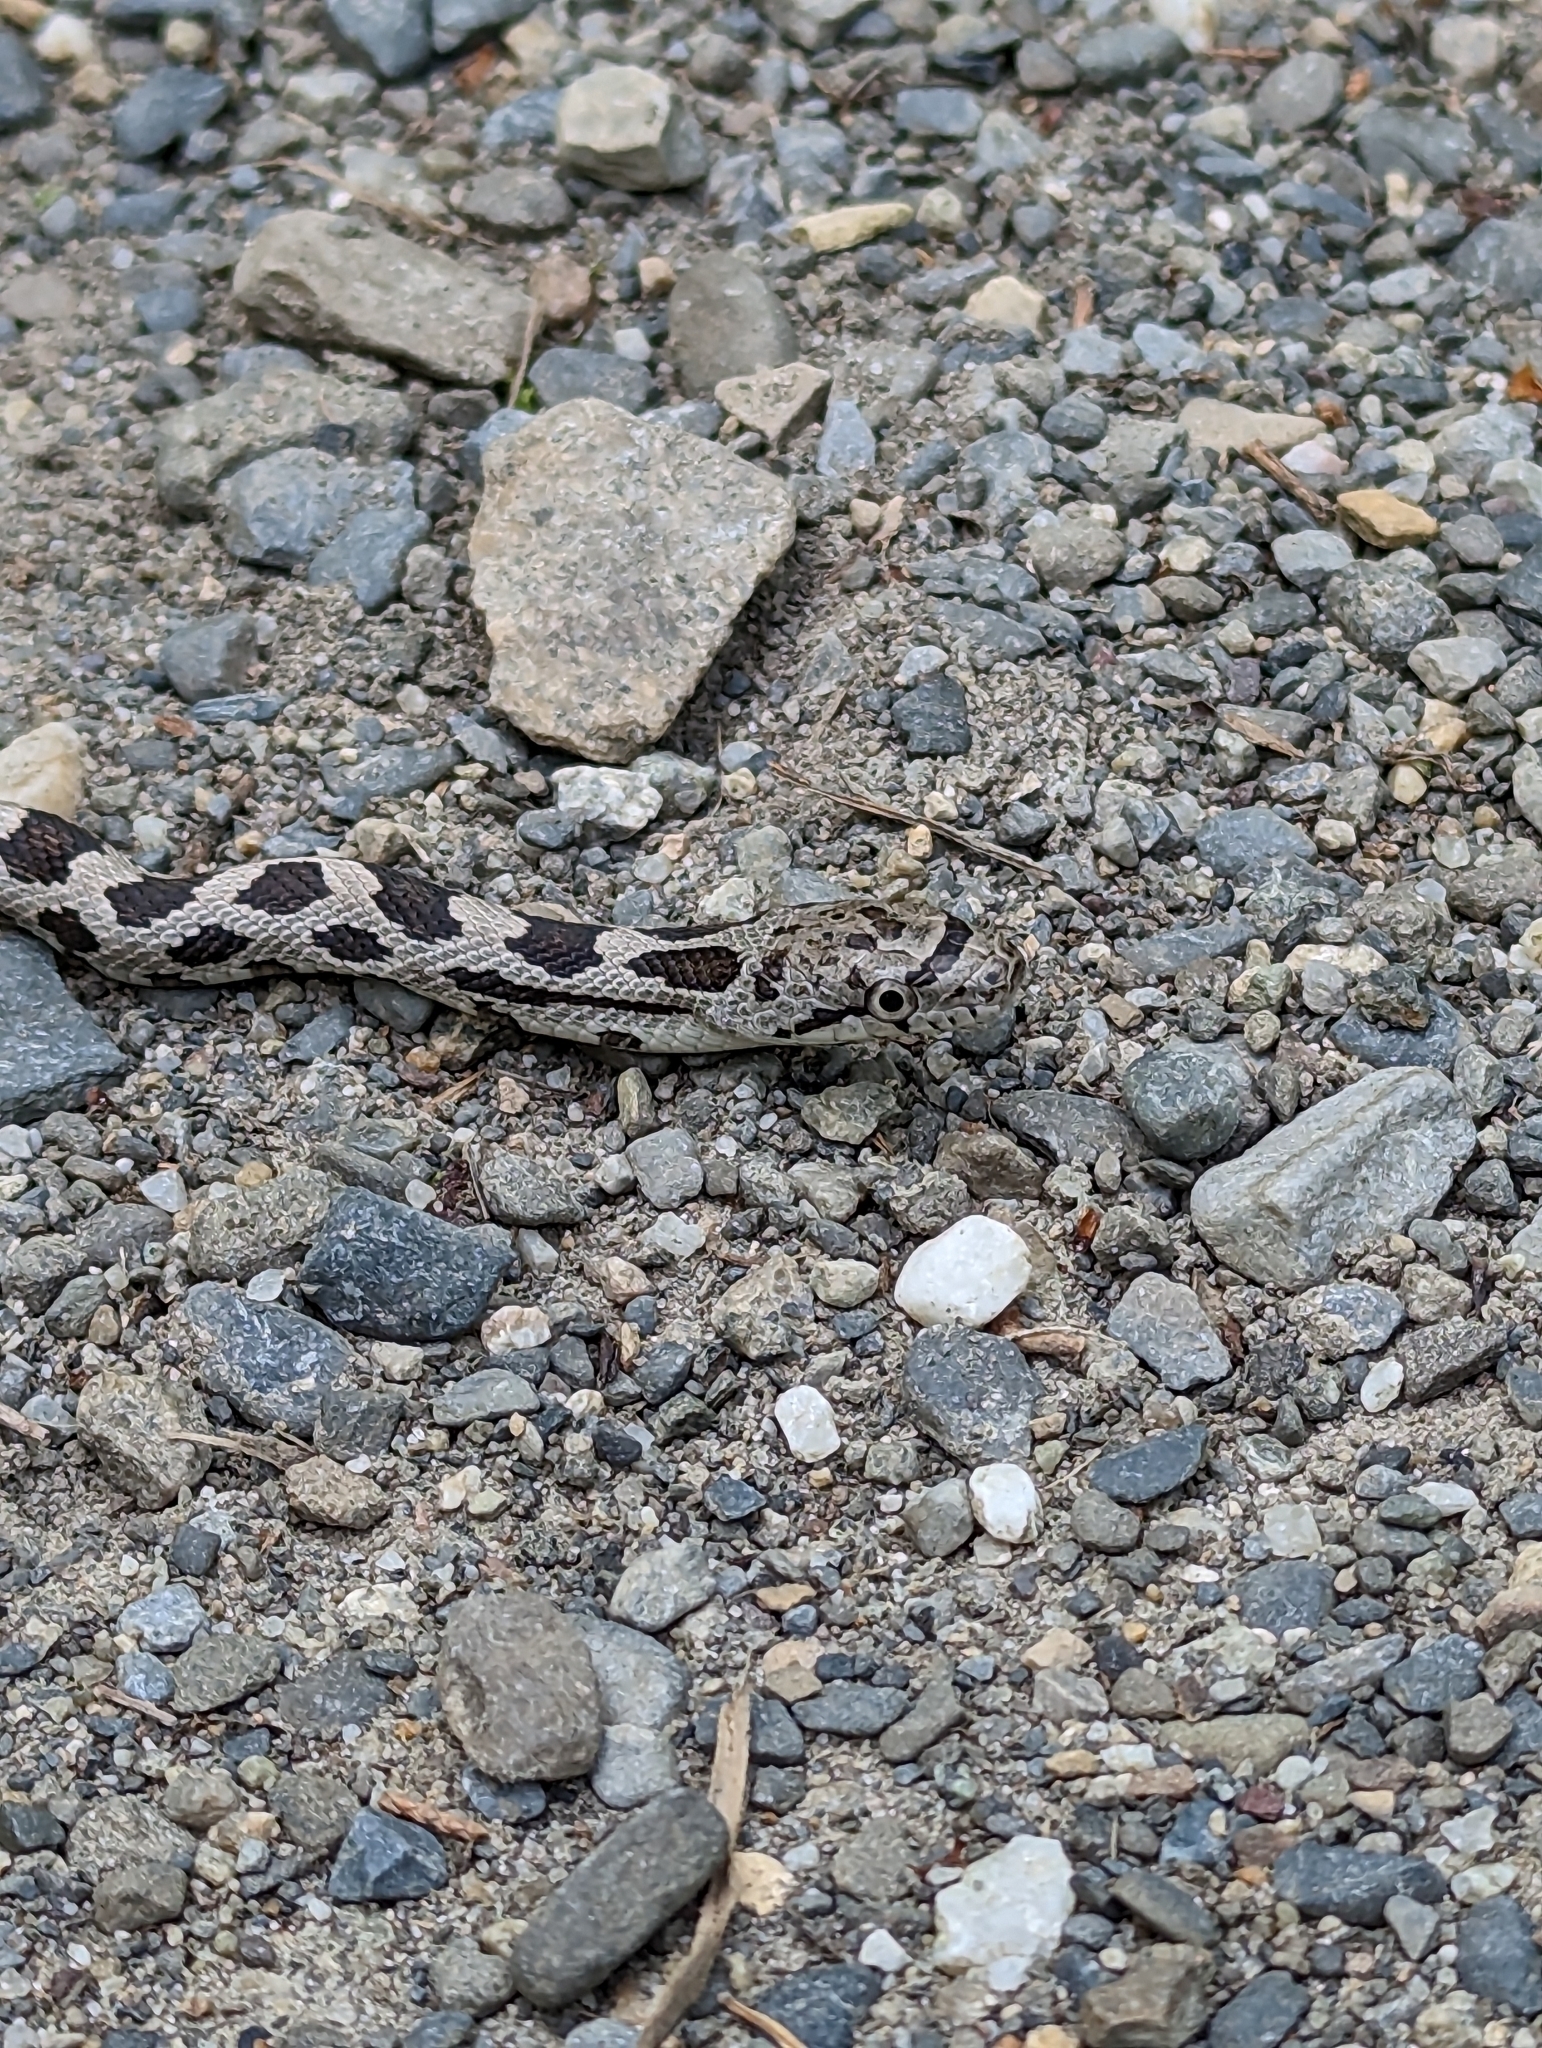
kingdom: Animalia
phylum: Chordata
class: Squamata
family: Colubridae
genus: Pantherophis
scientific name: Pantherophis alleghaniensis
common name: Eastern rat snake
